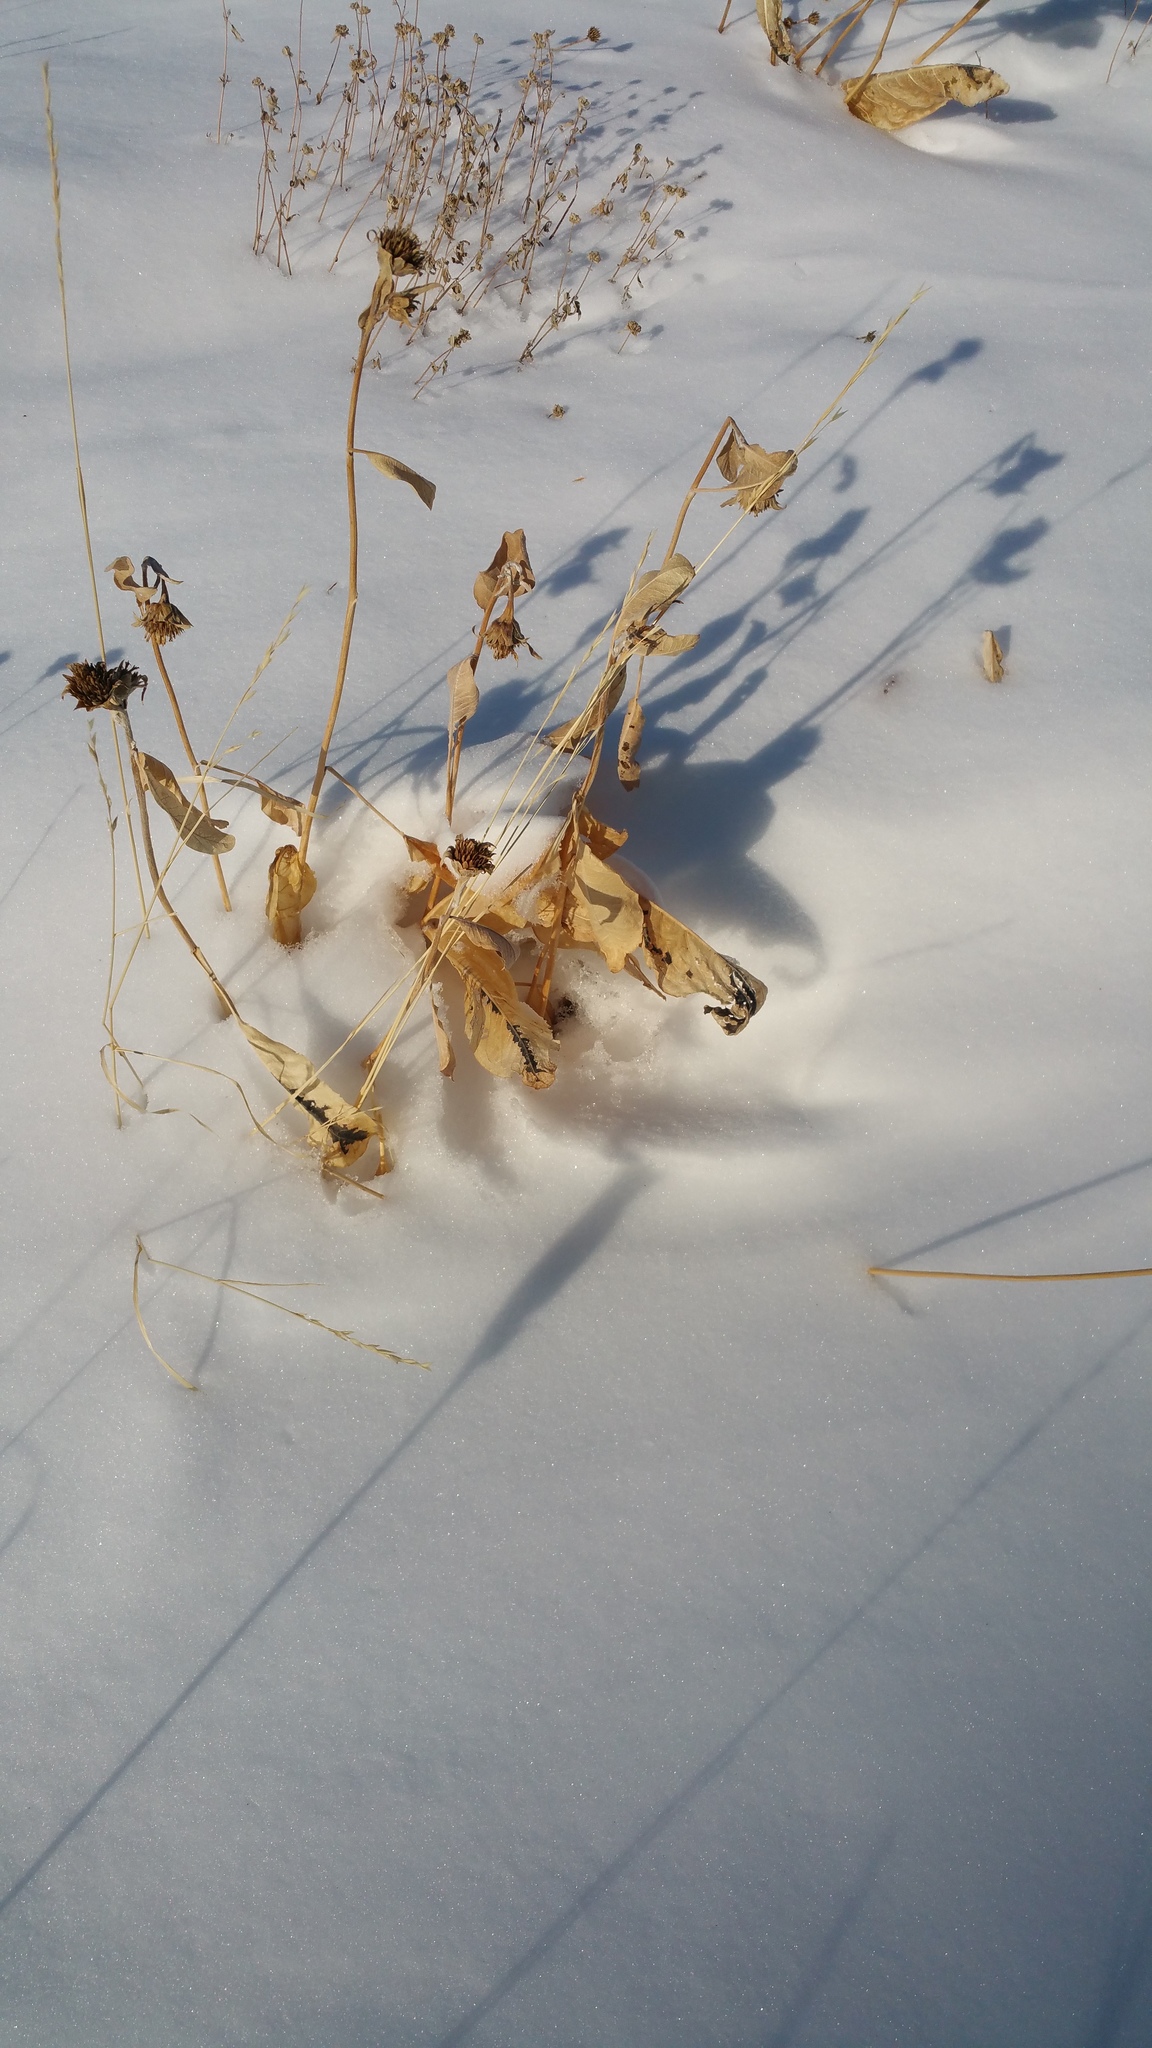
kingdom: Plantae
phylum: Tracheophyta
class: Magnoliopsida
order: Asterales
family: Asteraceae
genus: Wyethia
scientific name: Wyethia mollis
